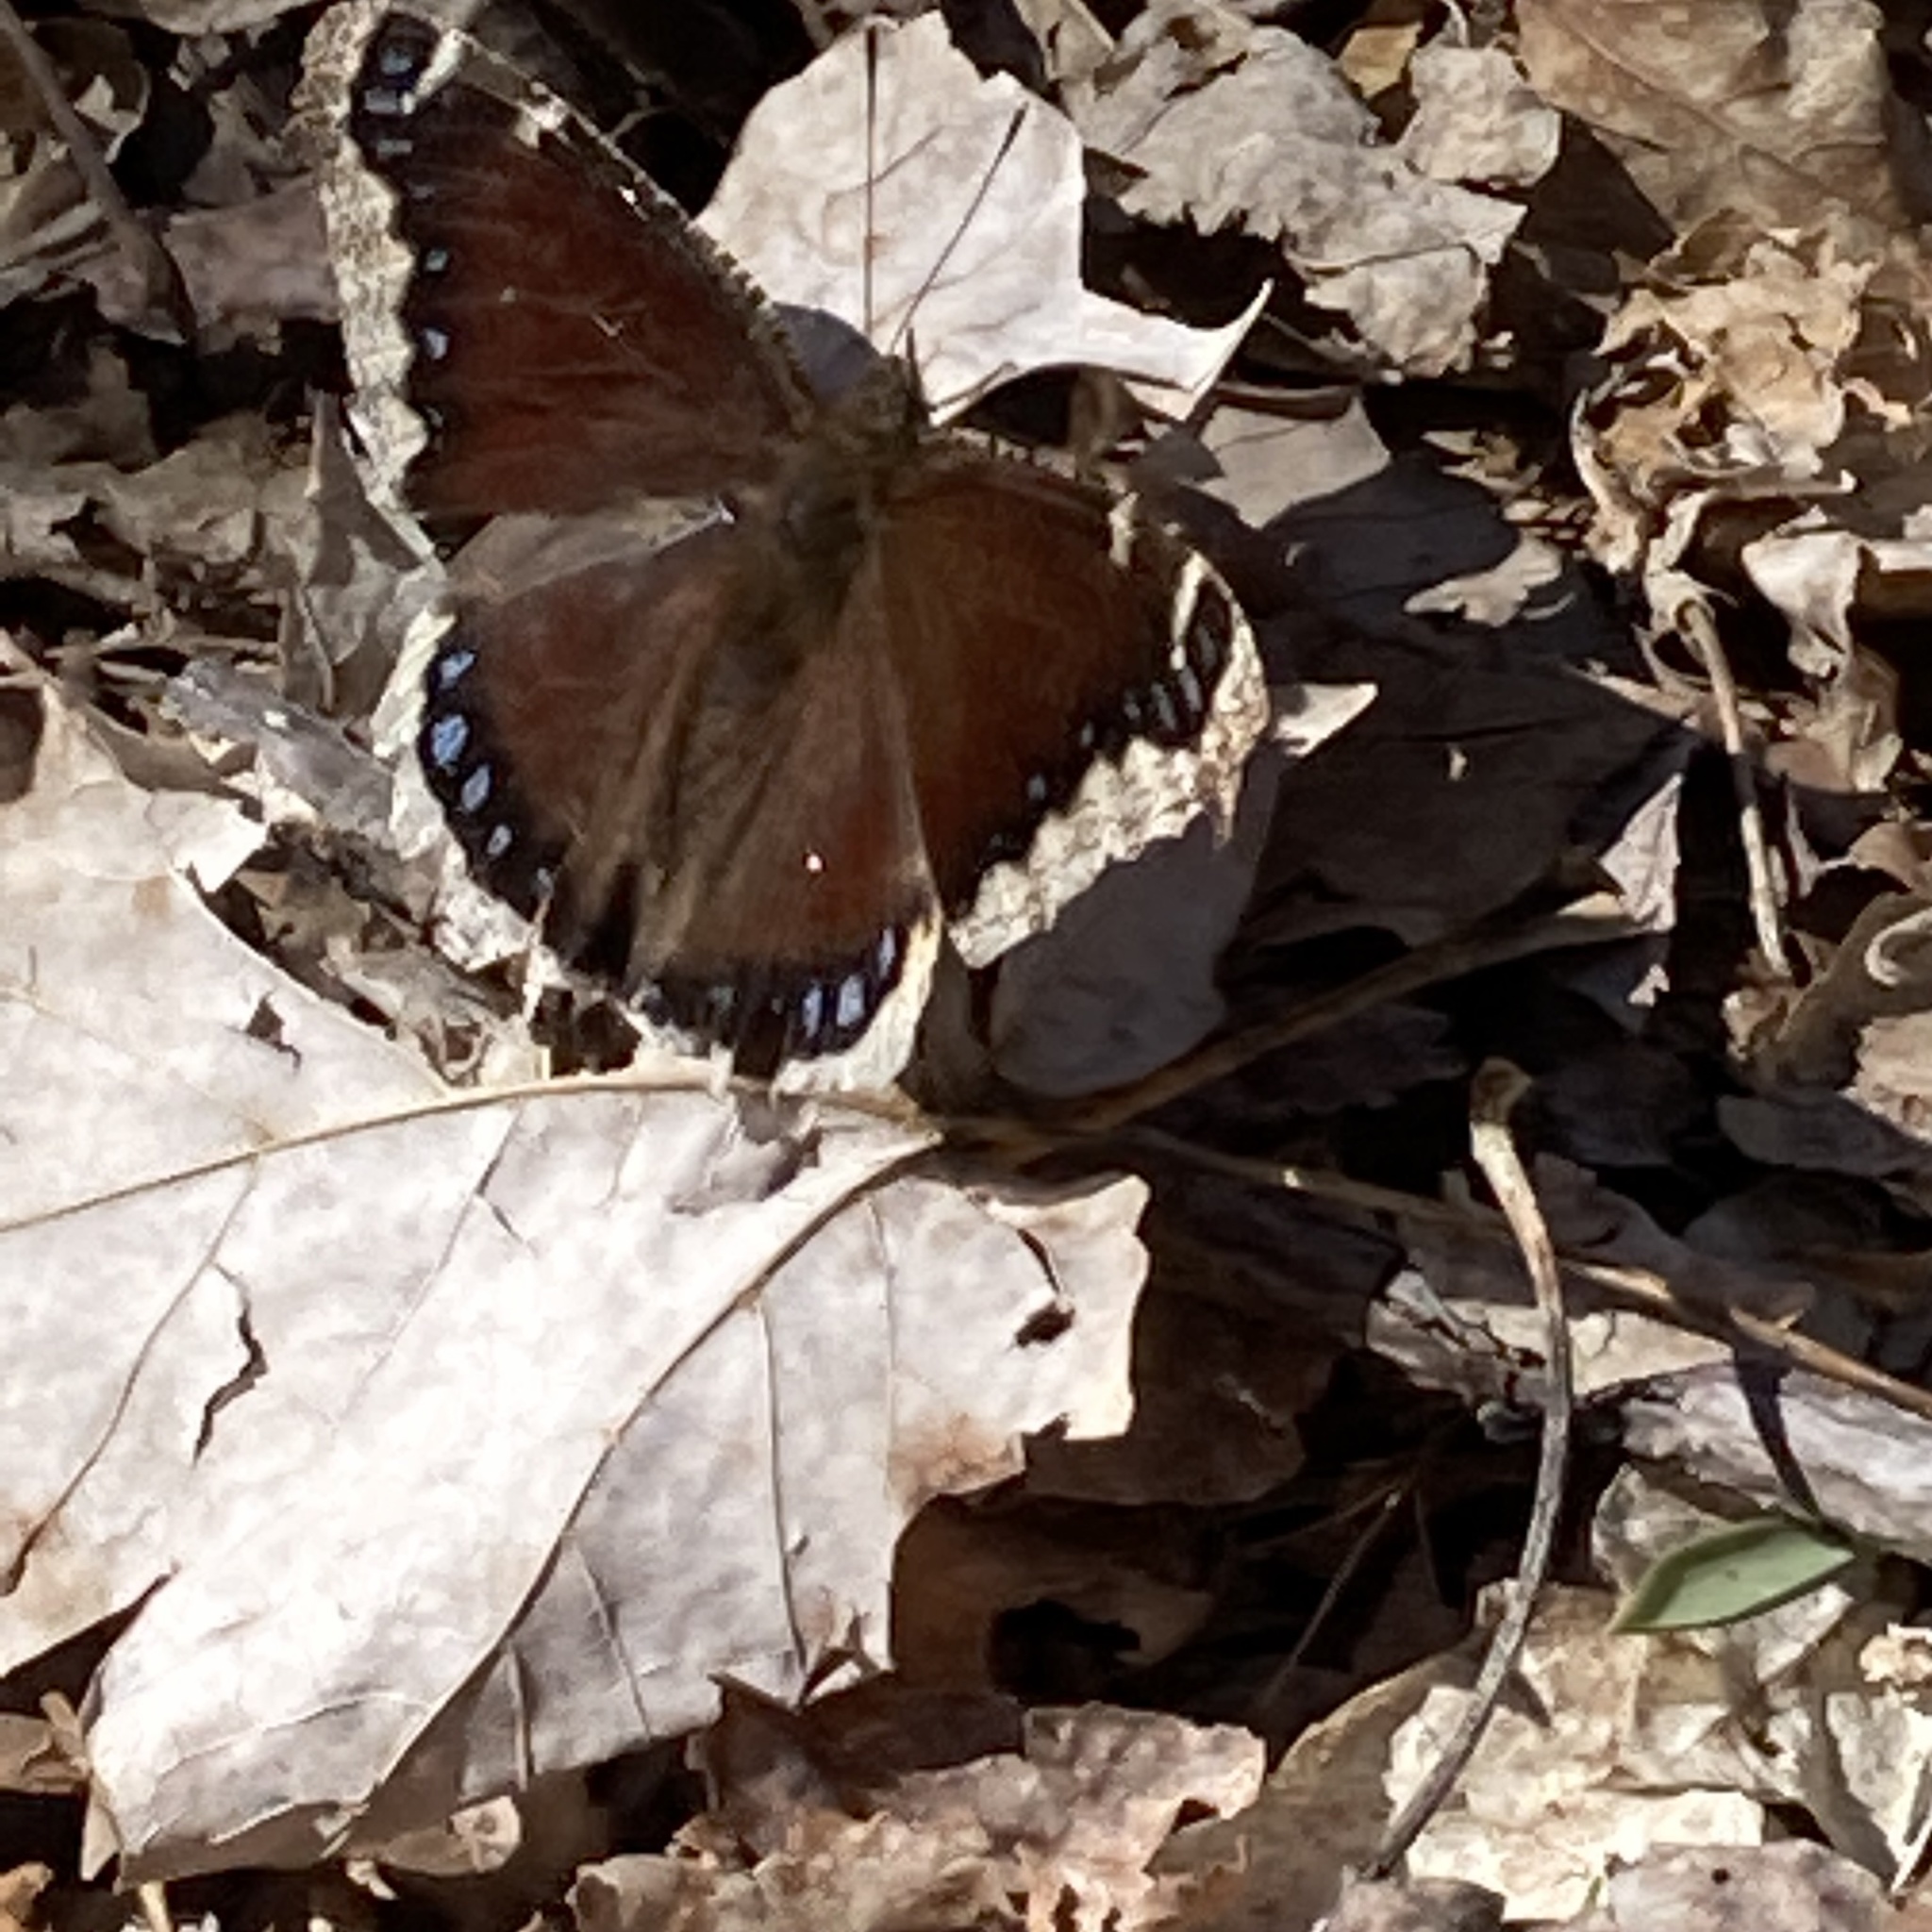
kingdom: Animalia
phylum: Arthropoda
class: Insecta
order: Lepidoptera
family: Nymphalidae
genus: Nymphalis
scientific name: Nymphalis antiopa
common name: Camberwell beauty
